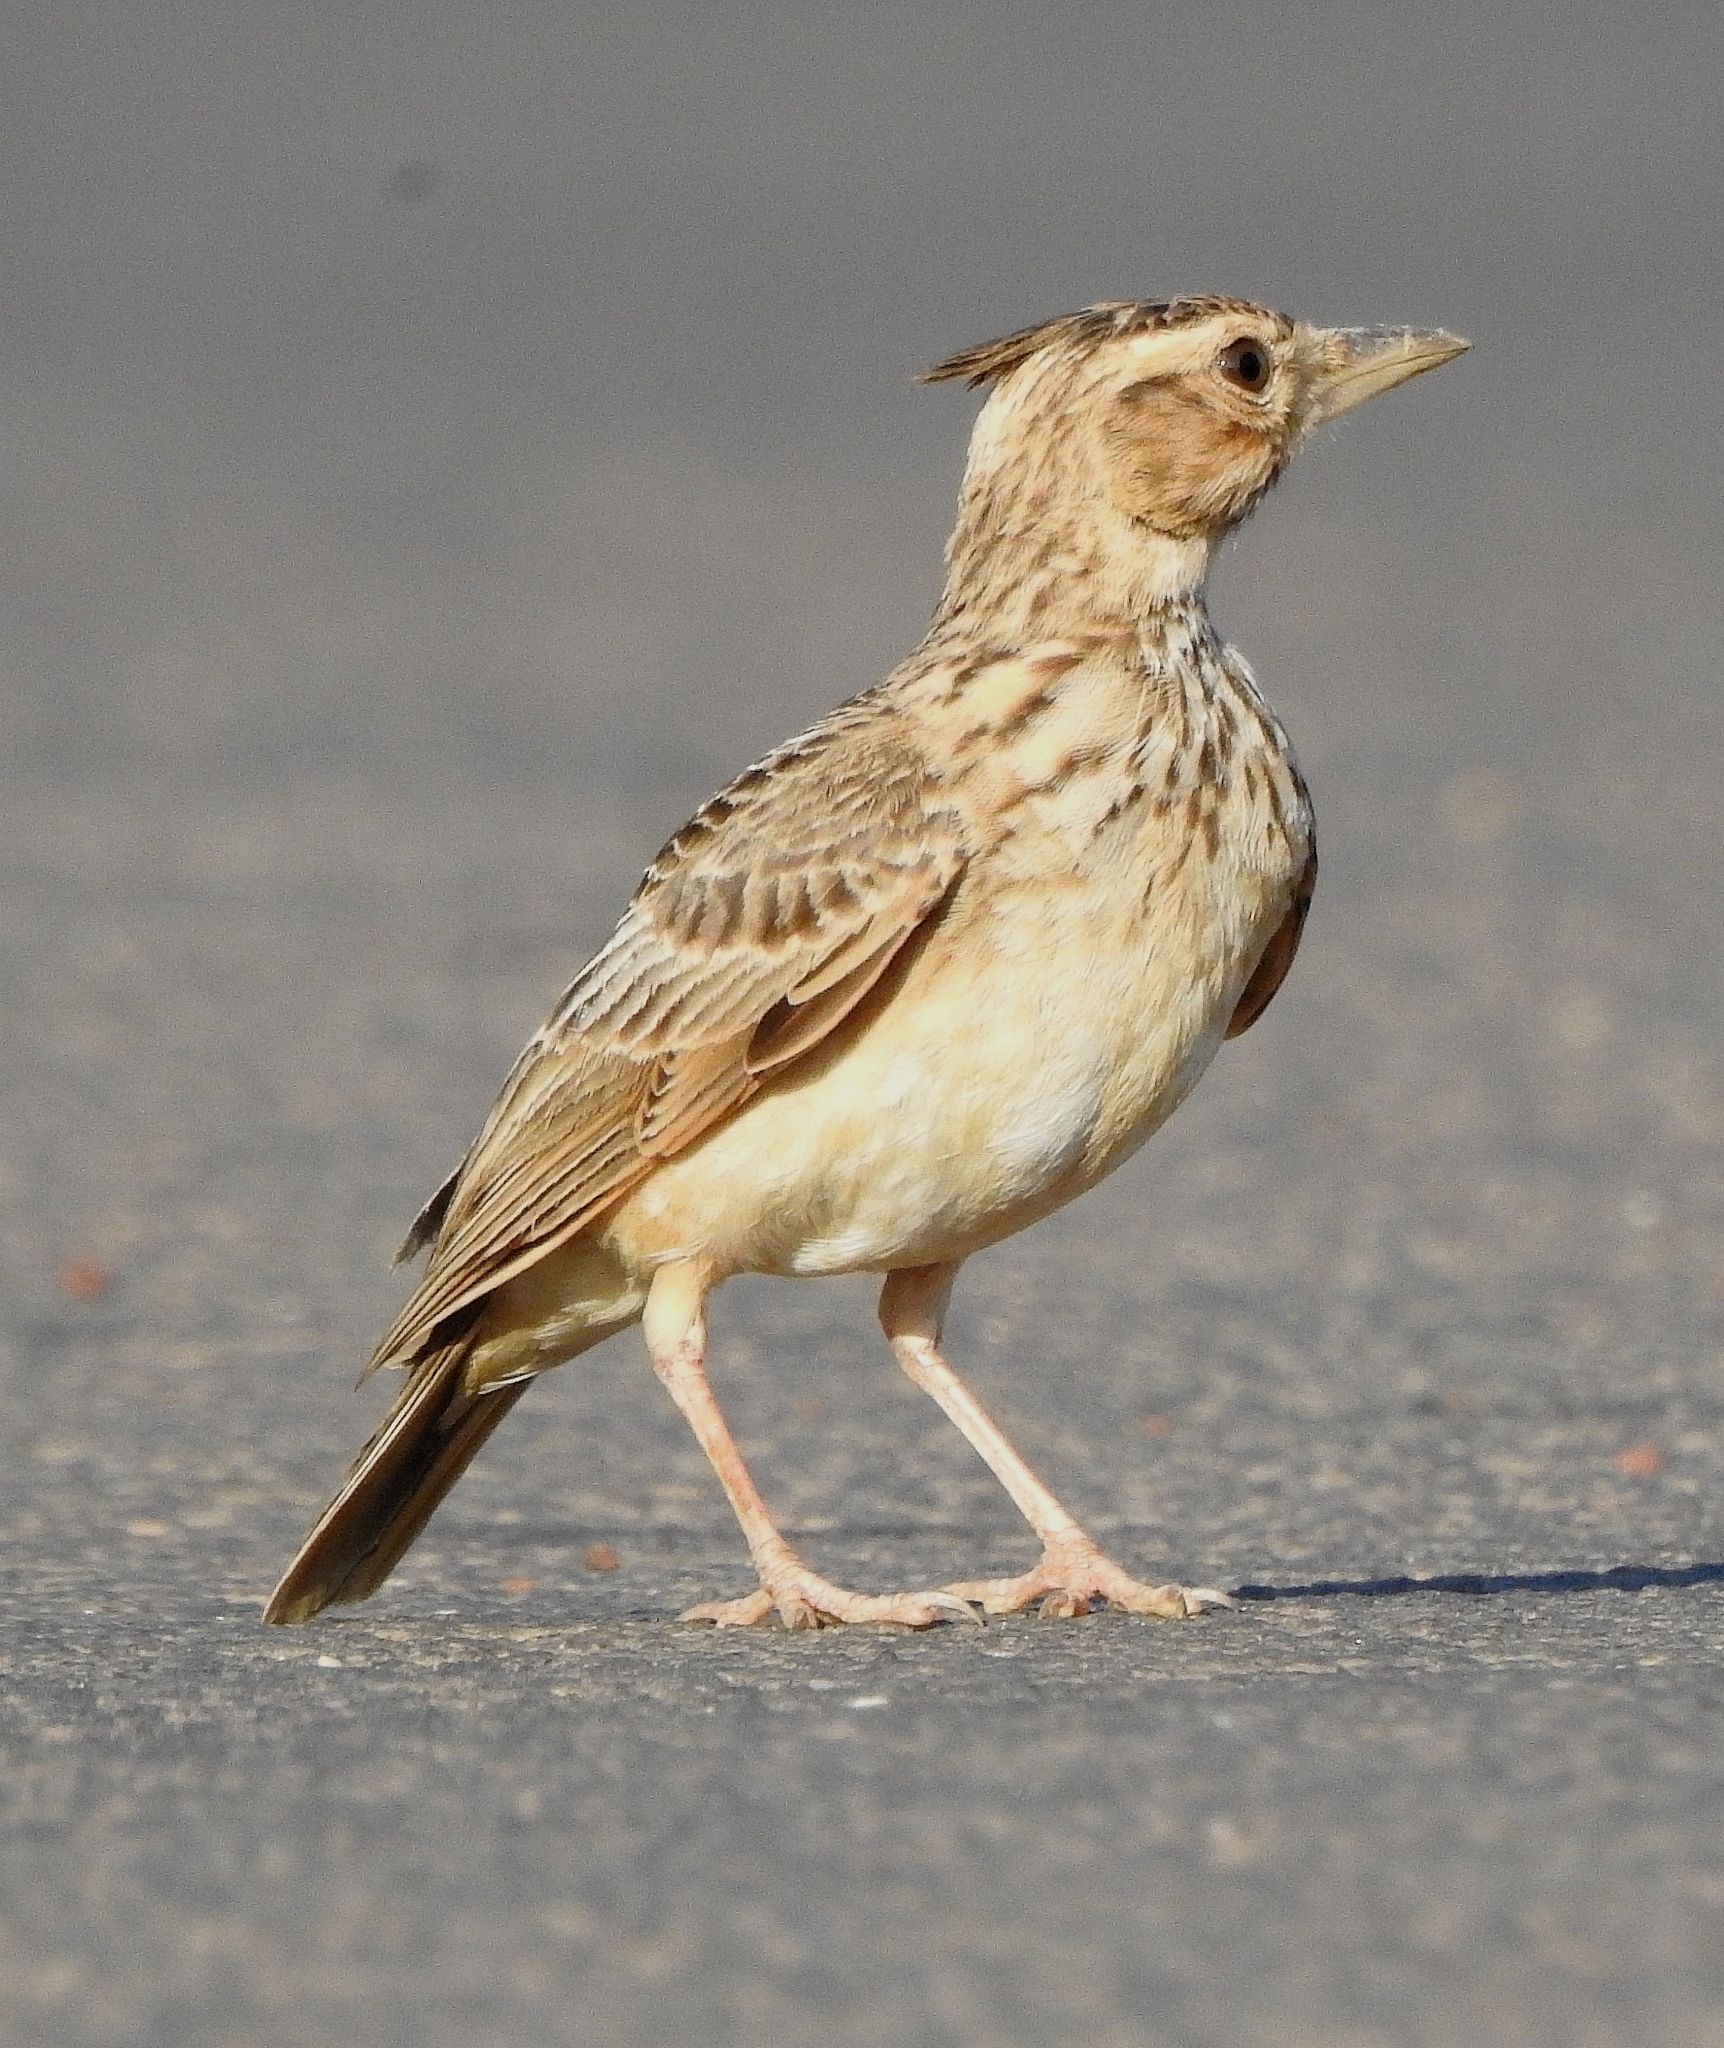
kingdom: Animalia
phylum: Chordata
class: Aves
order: Passeriformes
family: Alaudidae
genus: Galerida
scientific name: Galerida malabarica
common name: Malabar lark
